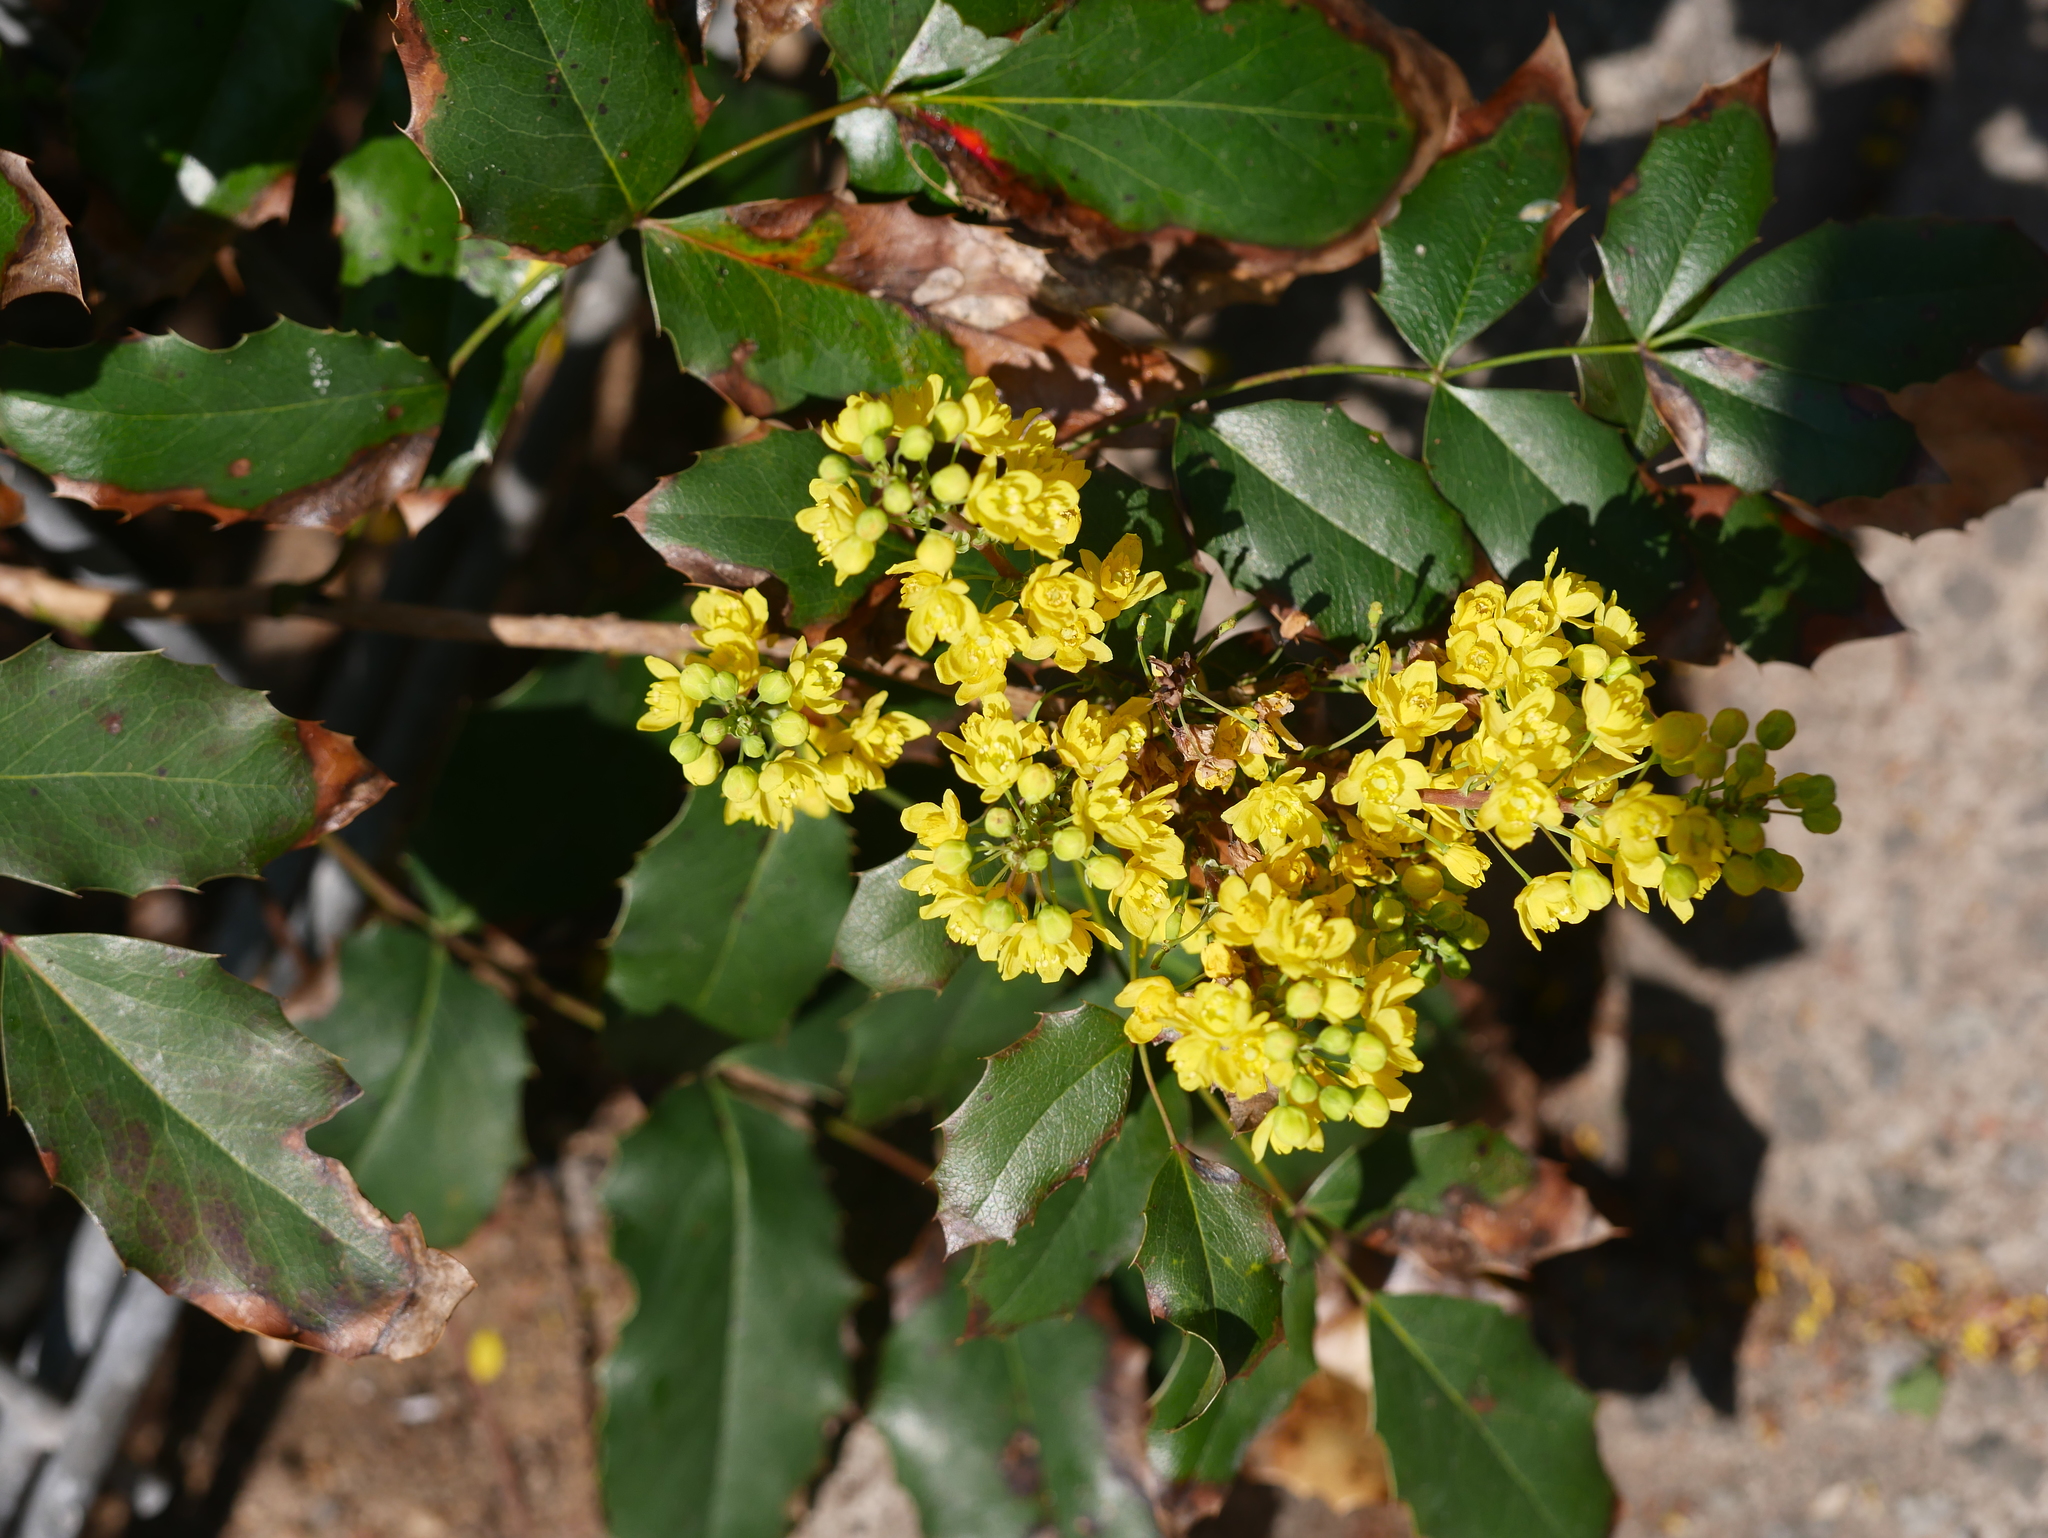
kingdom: Plantae
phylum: Tracheophyta
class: Magnoliopsida
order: Ranunculales
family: Berberidaceae
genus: Mahonia
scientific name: Mahonia aquifolium
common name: Oregon-grape
